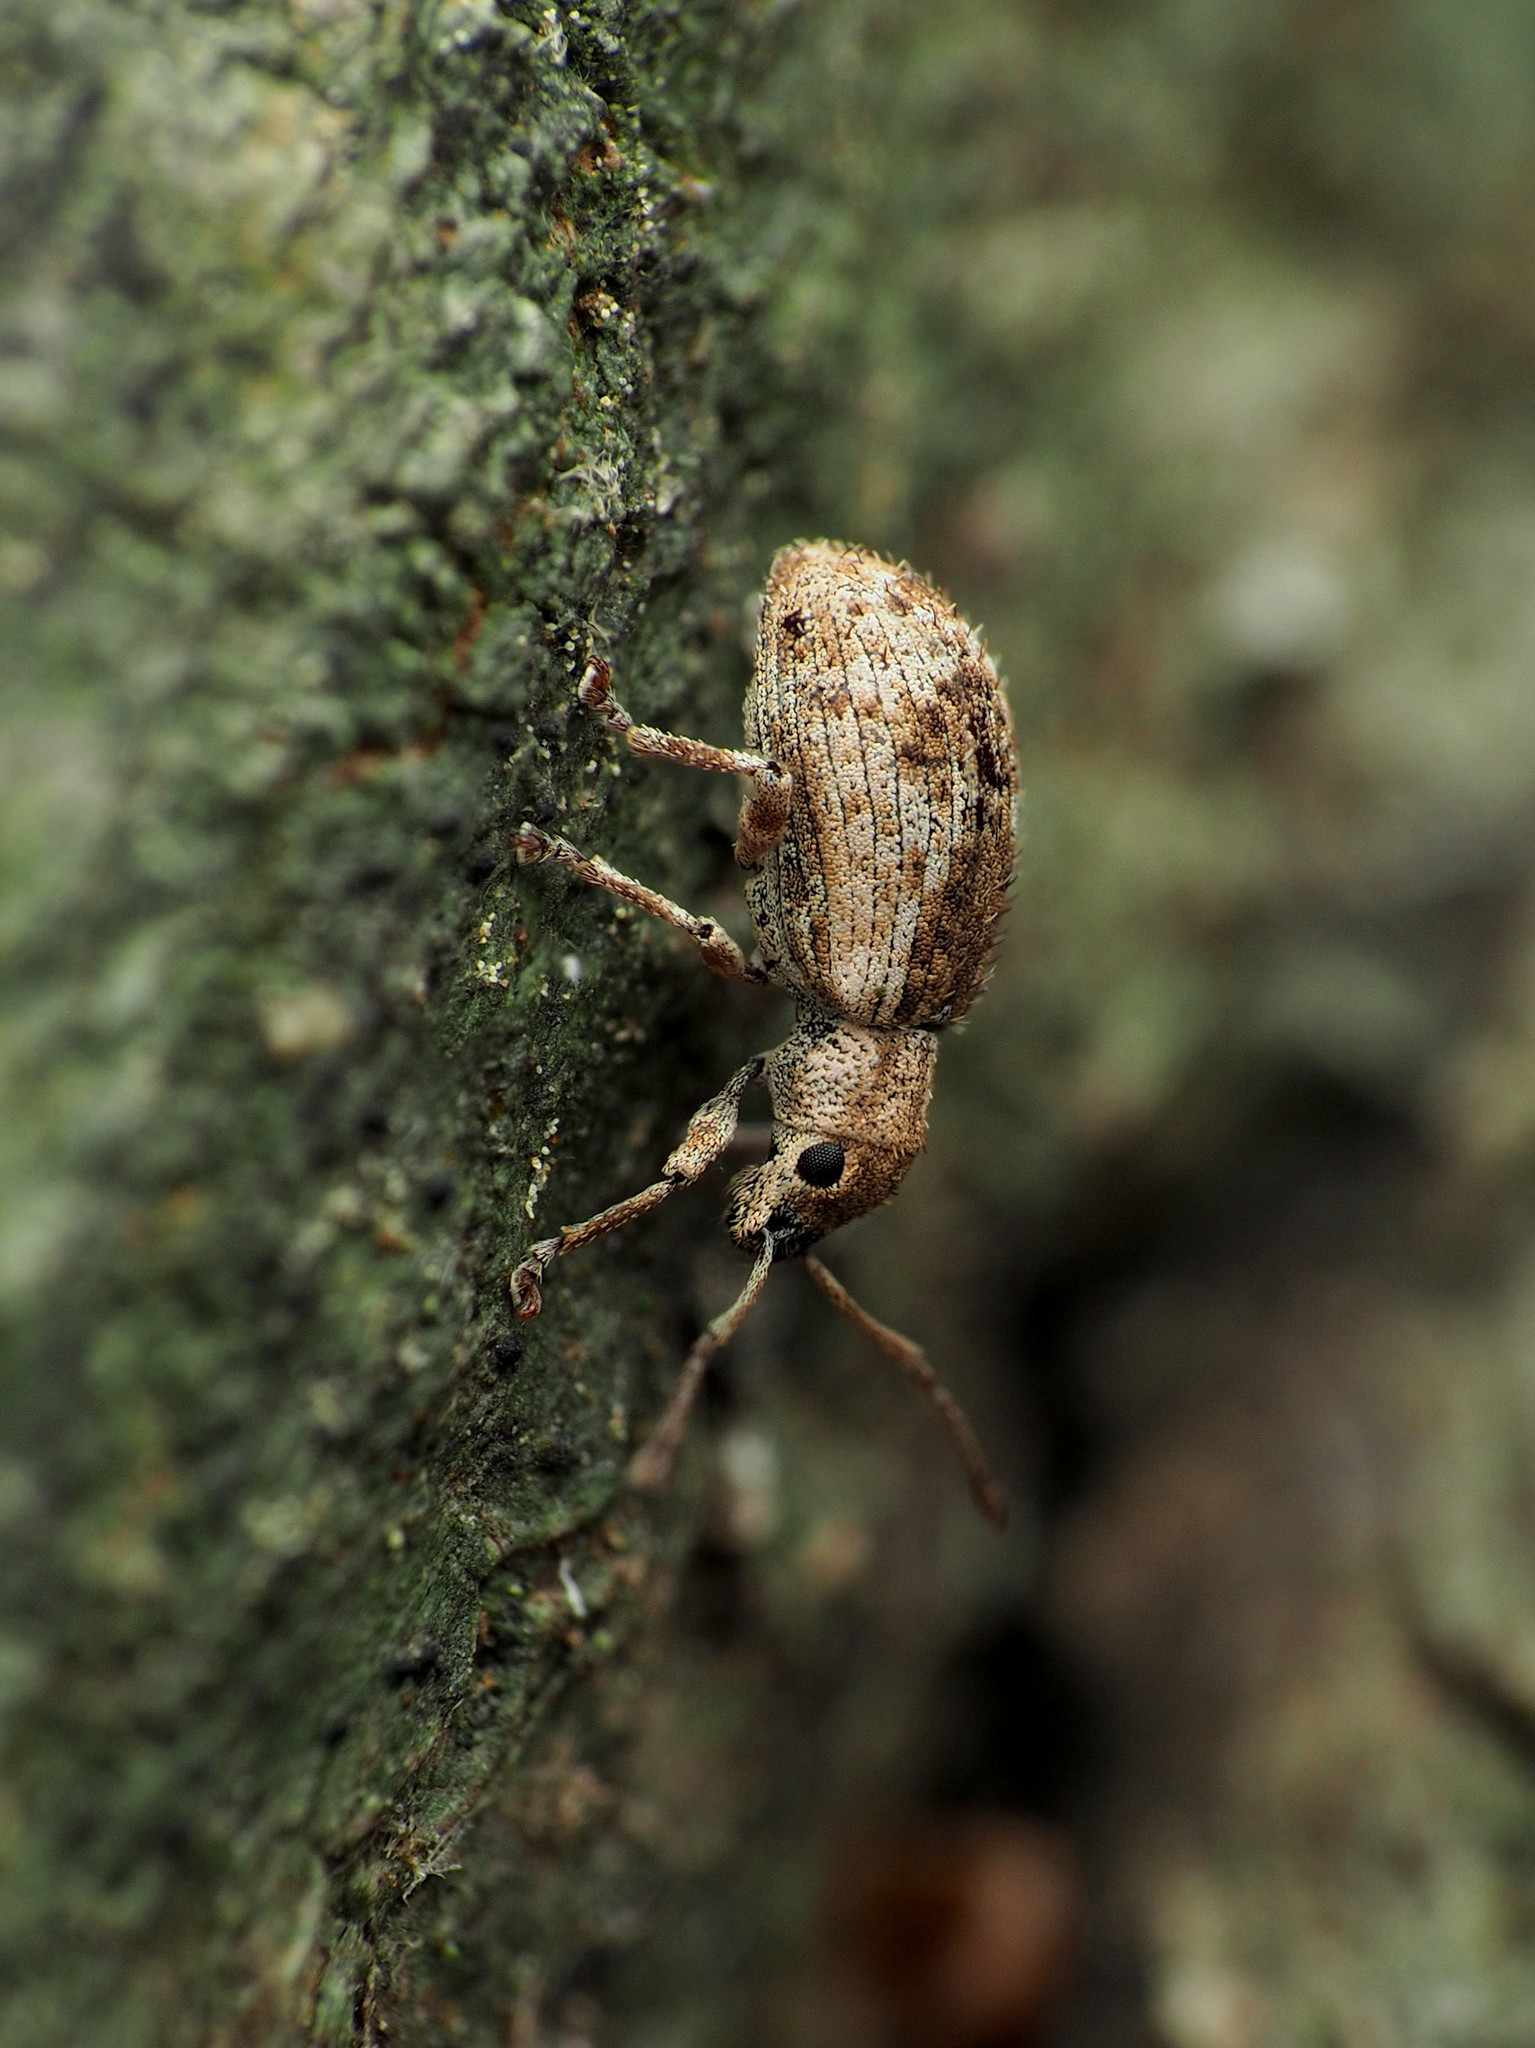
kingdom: Animalia
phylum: Arthropoda
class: Insecta
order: Coleoptera
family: Curculionidae
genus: Pseudoedophrys
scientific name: Pseudoedophrys hilleri
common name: Weevil
